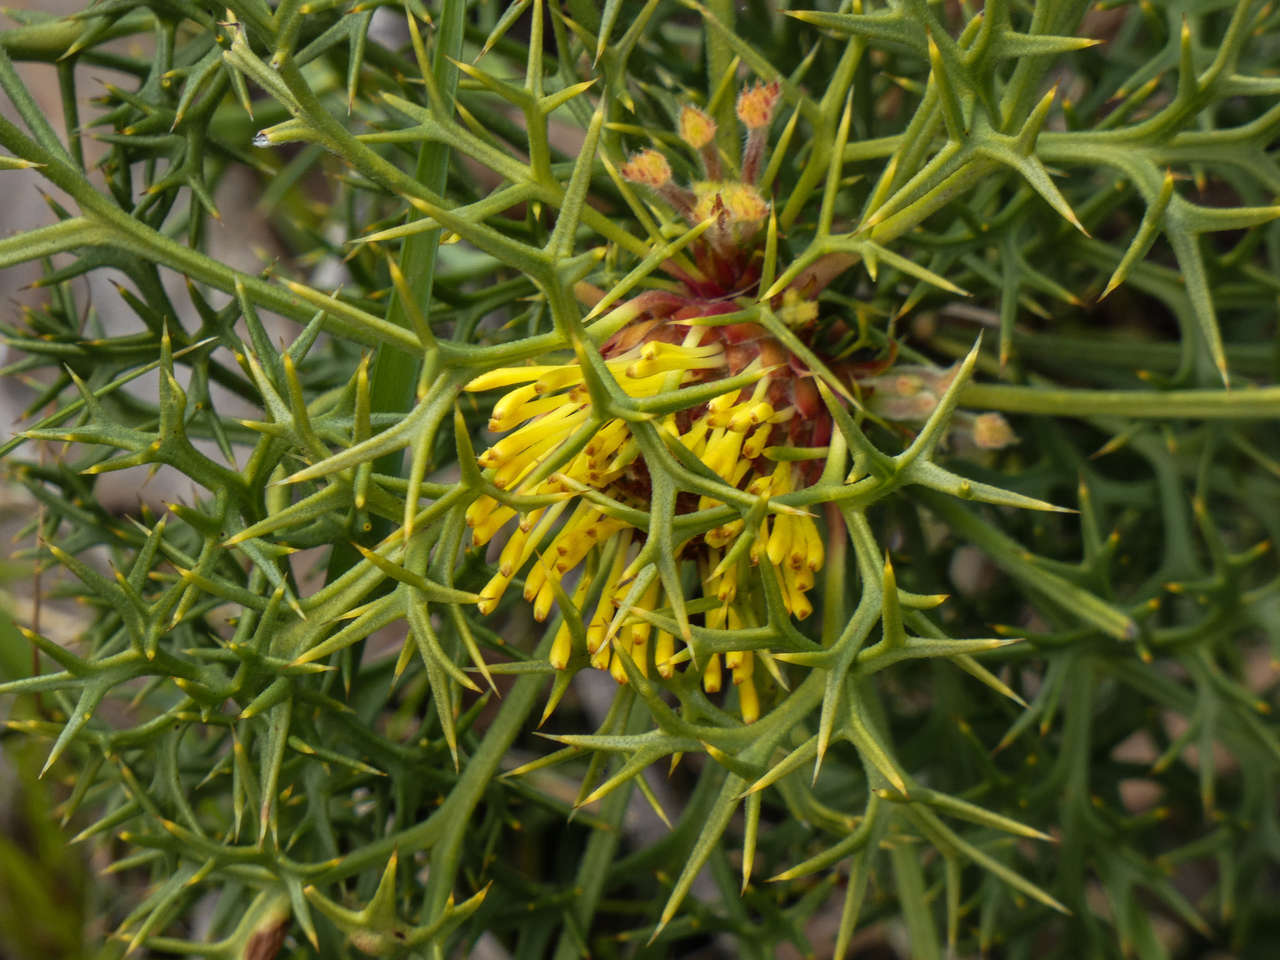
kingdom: Plantae
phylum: Tracheophyta
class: Magnoliopsida
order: Proteales
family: Proteaceae
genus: Isopogon
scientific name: Isopogon ceratophyllus
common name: Horny cone-bush
